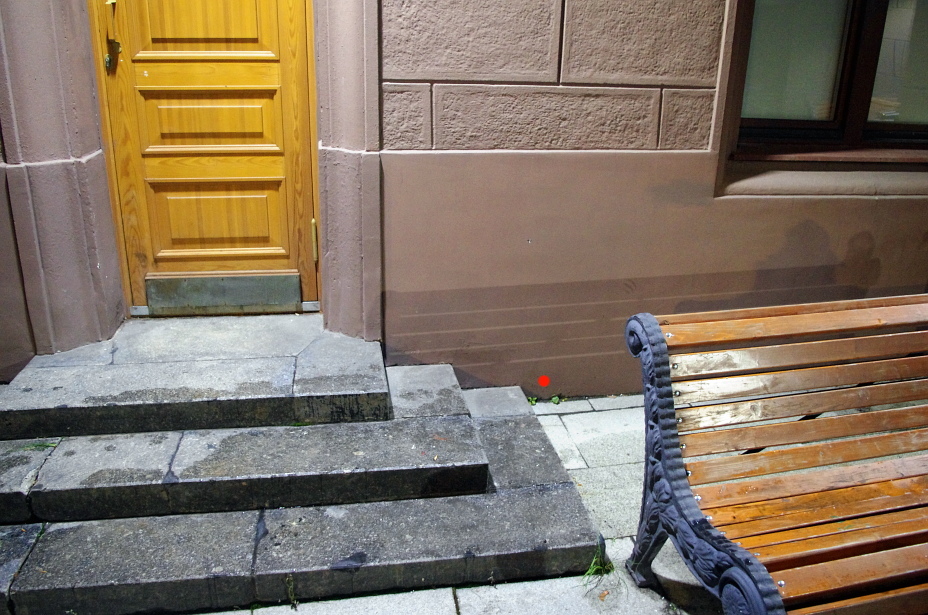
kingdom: Plantae
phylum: Tracheophyta
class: Magnoliopsida
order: Fagales
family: Betulaceae
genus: Betula
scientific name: Betula pubescens
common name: Downy birch
